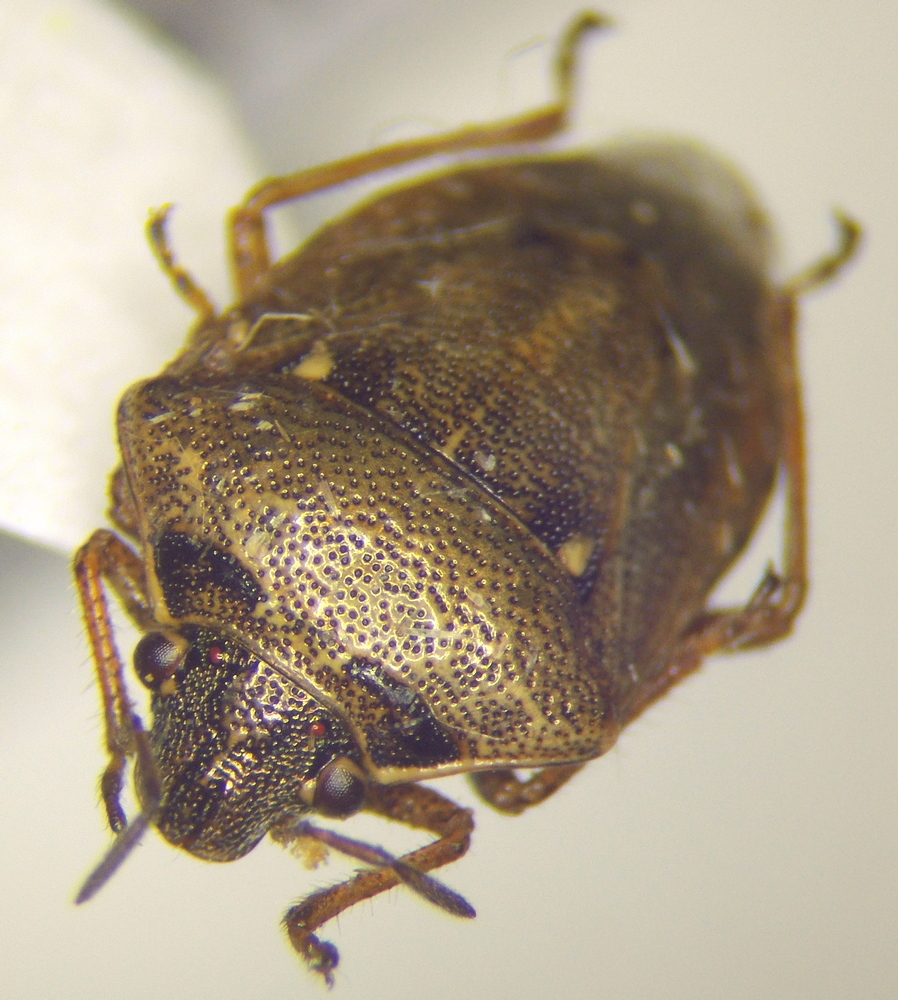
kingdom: Animalia
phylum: Arthropoda
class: Insecta
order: Hemiptera
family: Pentatomidae
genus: Eysarcoris
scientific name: Eysarcoris ventralis
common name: White-spotted stink bug
